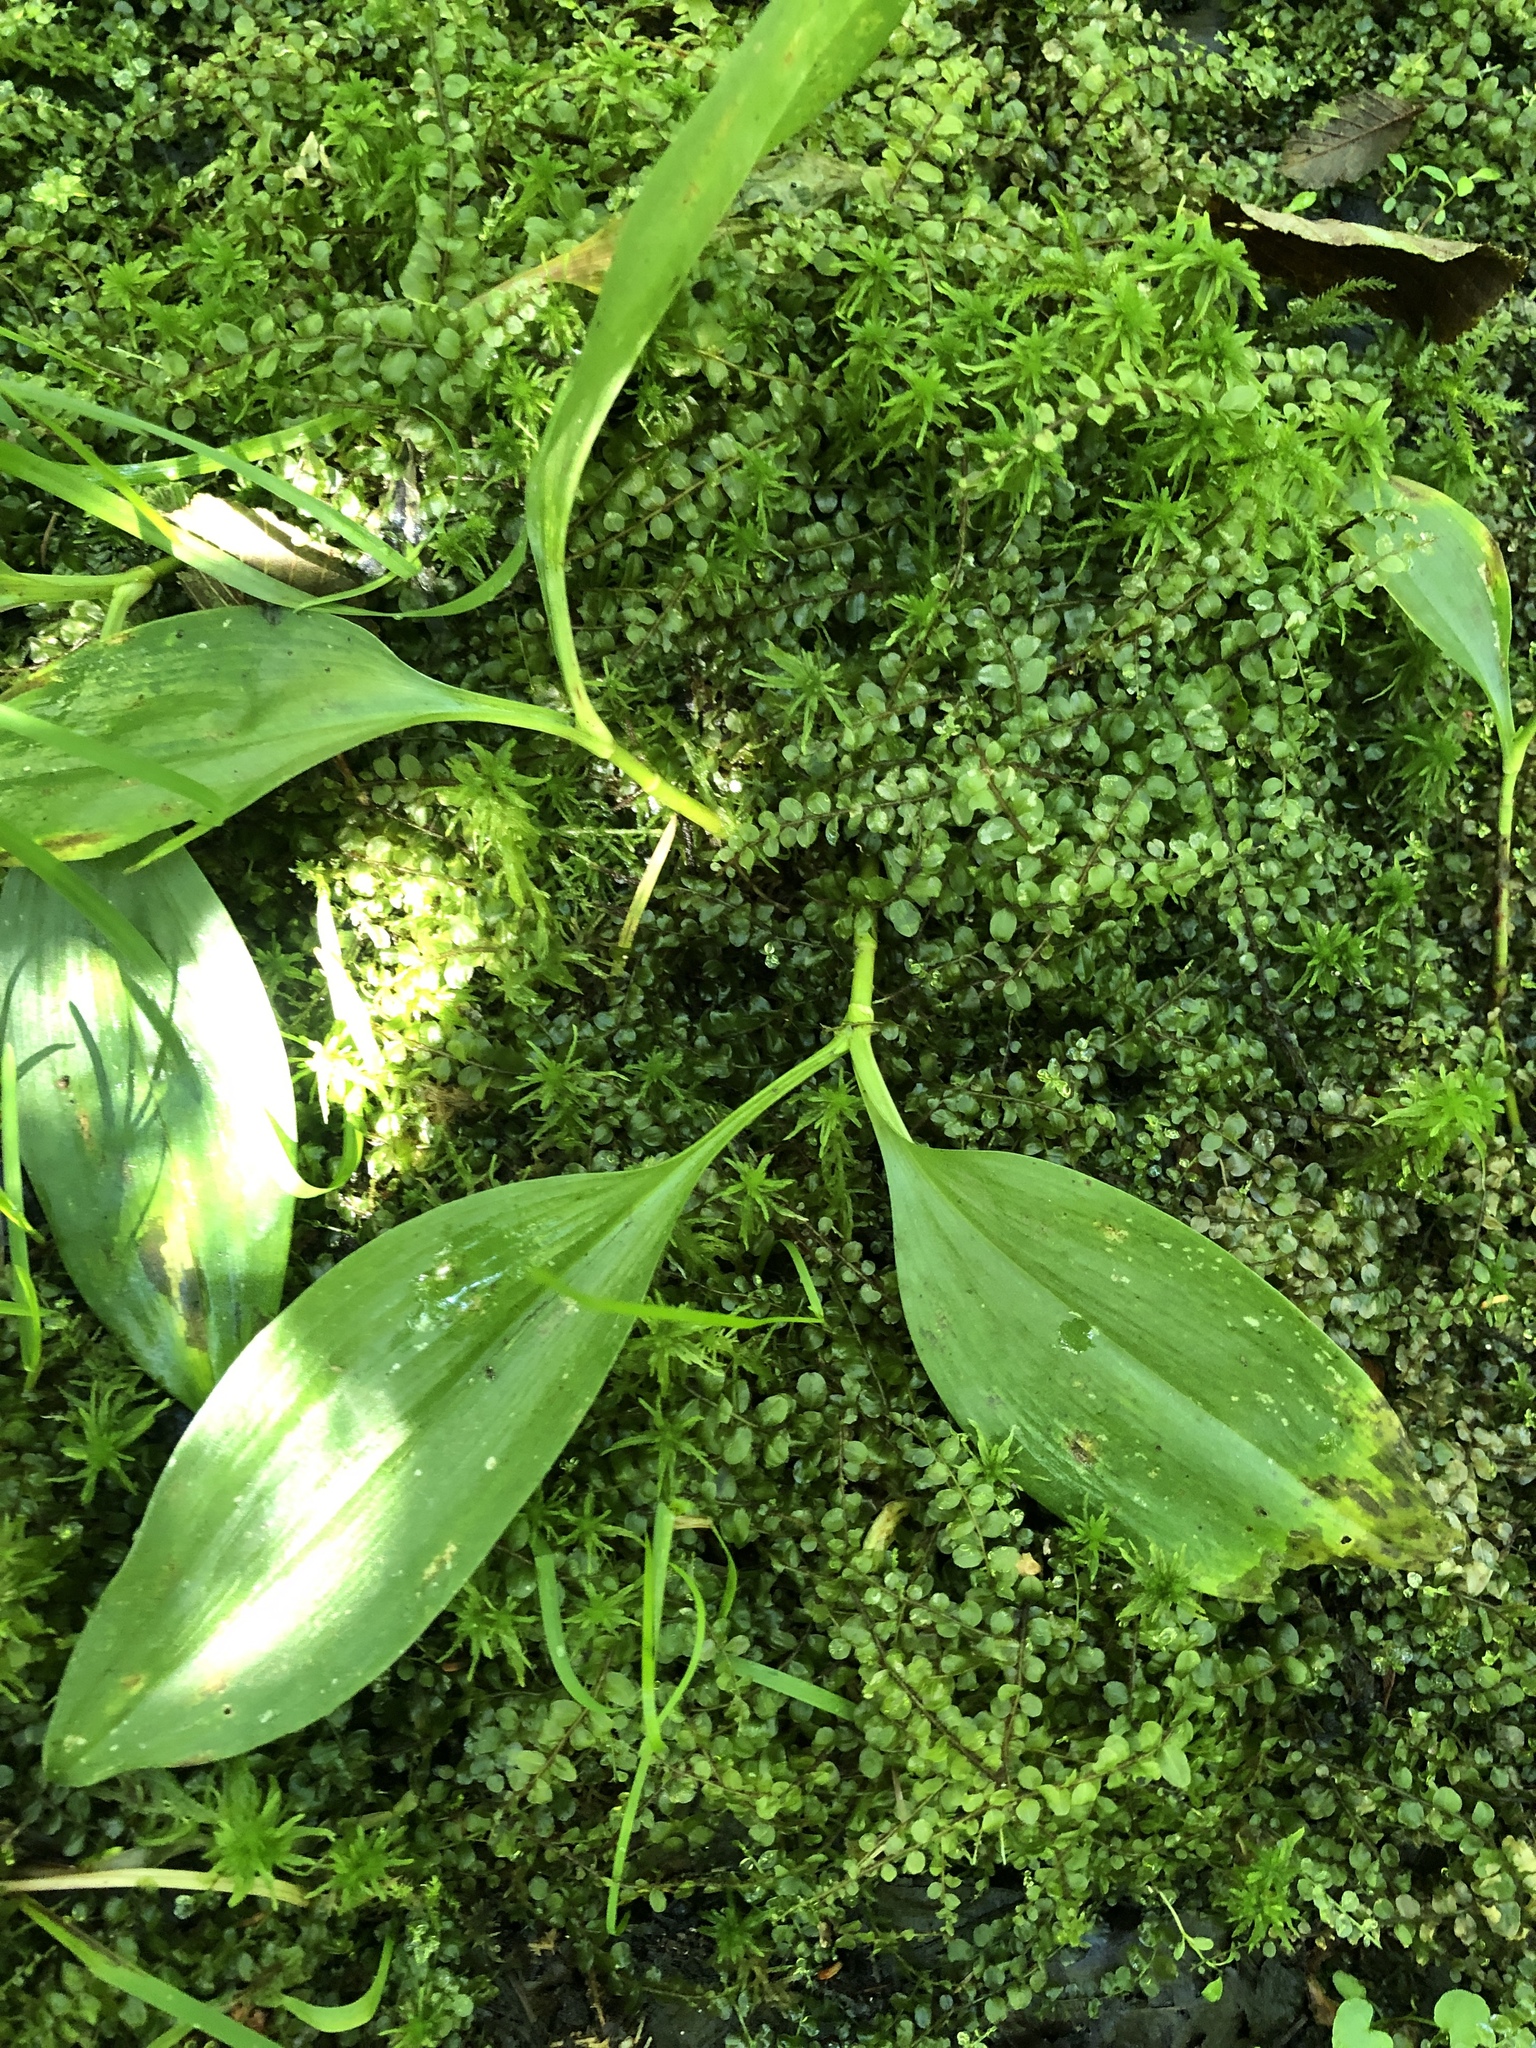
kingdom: Plantae
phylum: Tracheophyta
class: Liliopsida
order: Asparagales
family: Asparagaceae
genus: Maianthemum
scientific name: Maianthemum trifolium
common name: Swamp false solomon's seal
